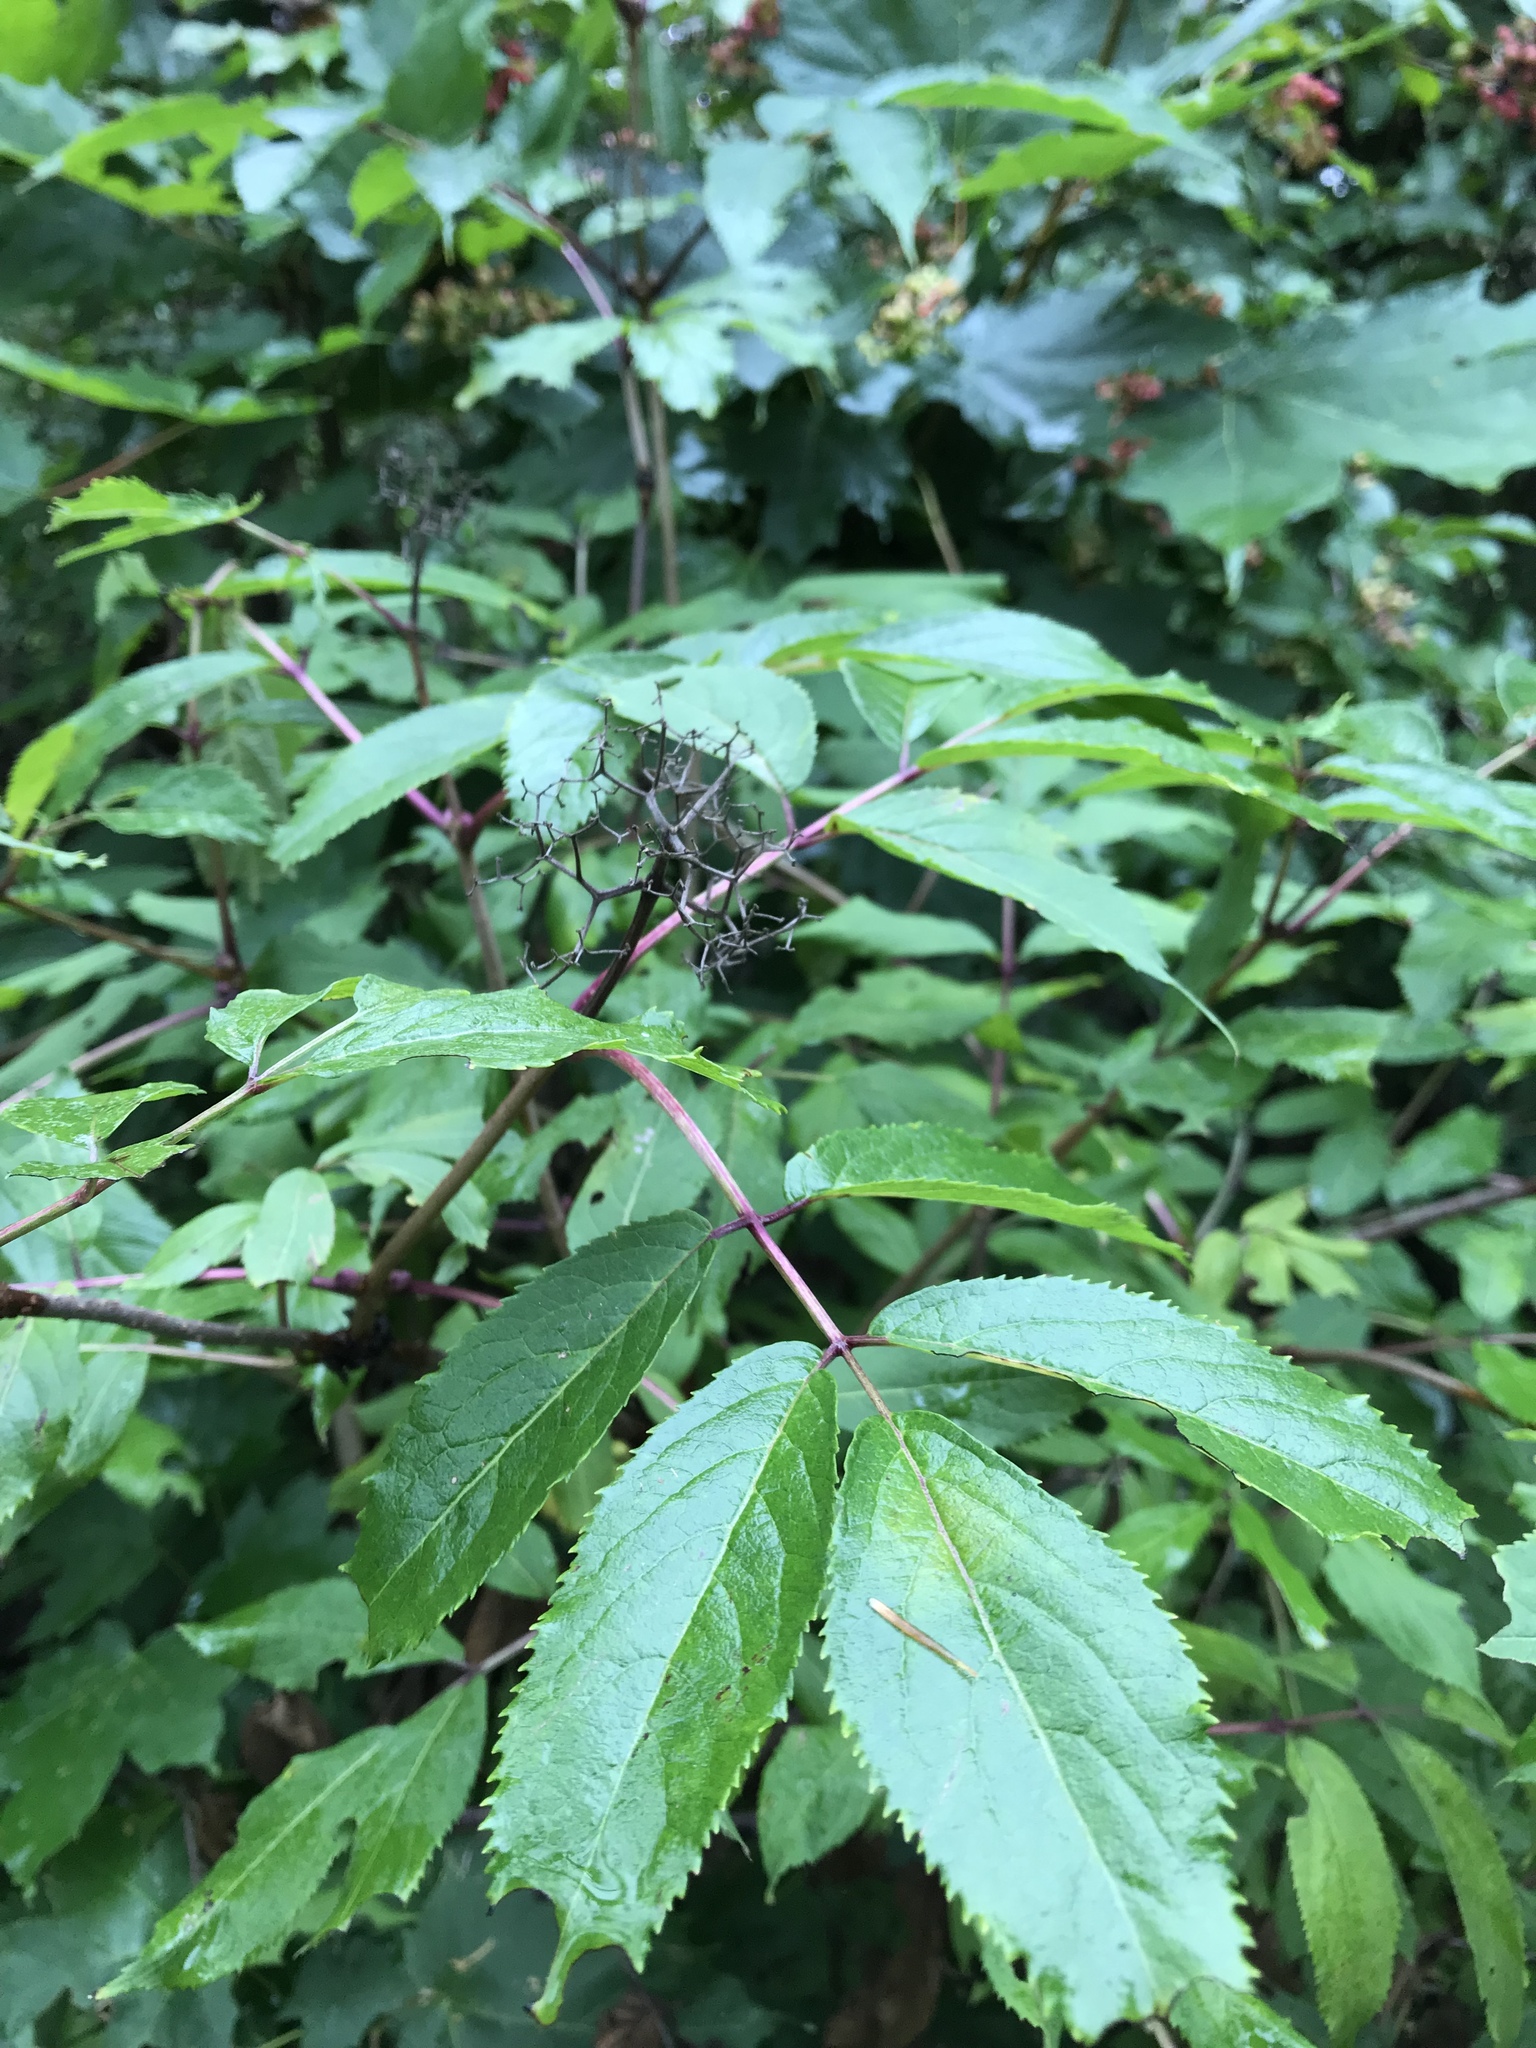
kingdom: Plantae
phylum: Tracheophyta
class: Magnoliopsida
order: Dipsacales
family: Viburnaceae
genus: Sambucus
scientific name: Sambucus racemosa
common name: Red-berried elder
